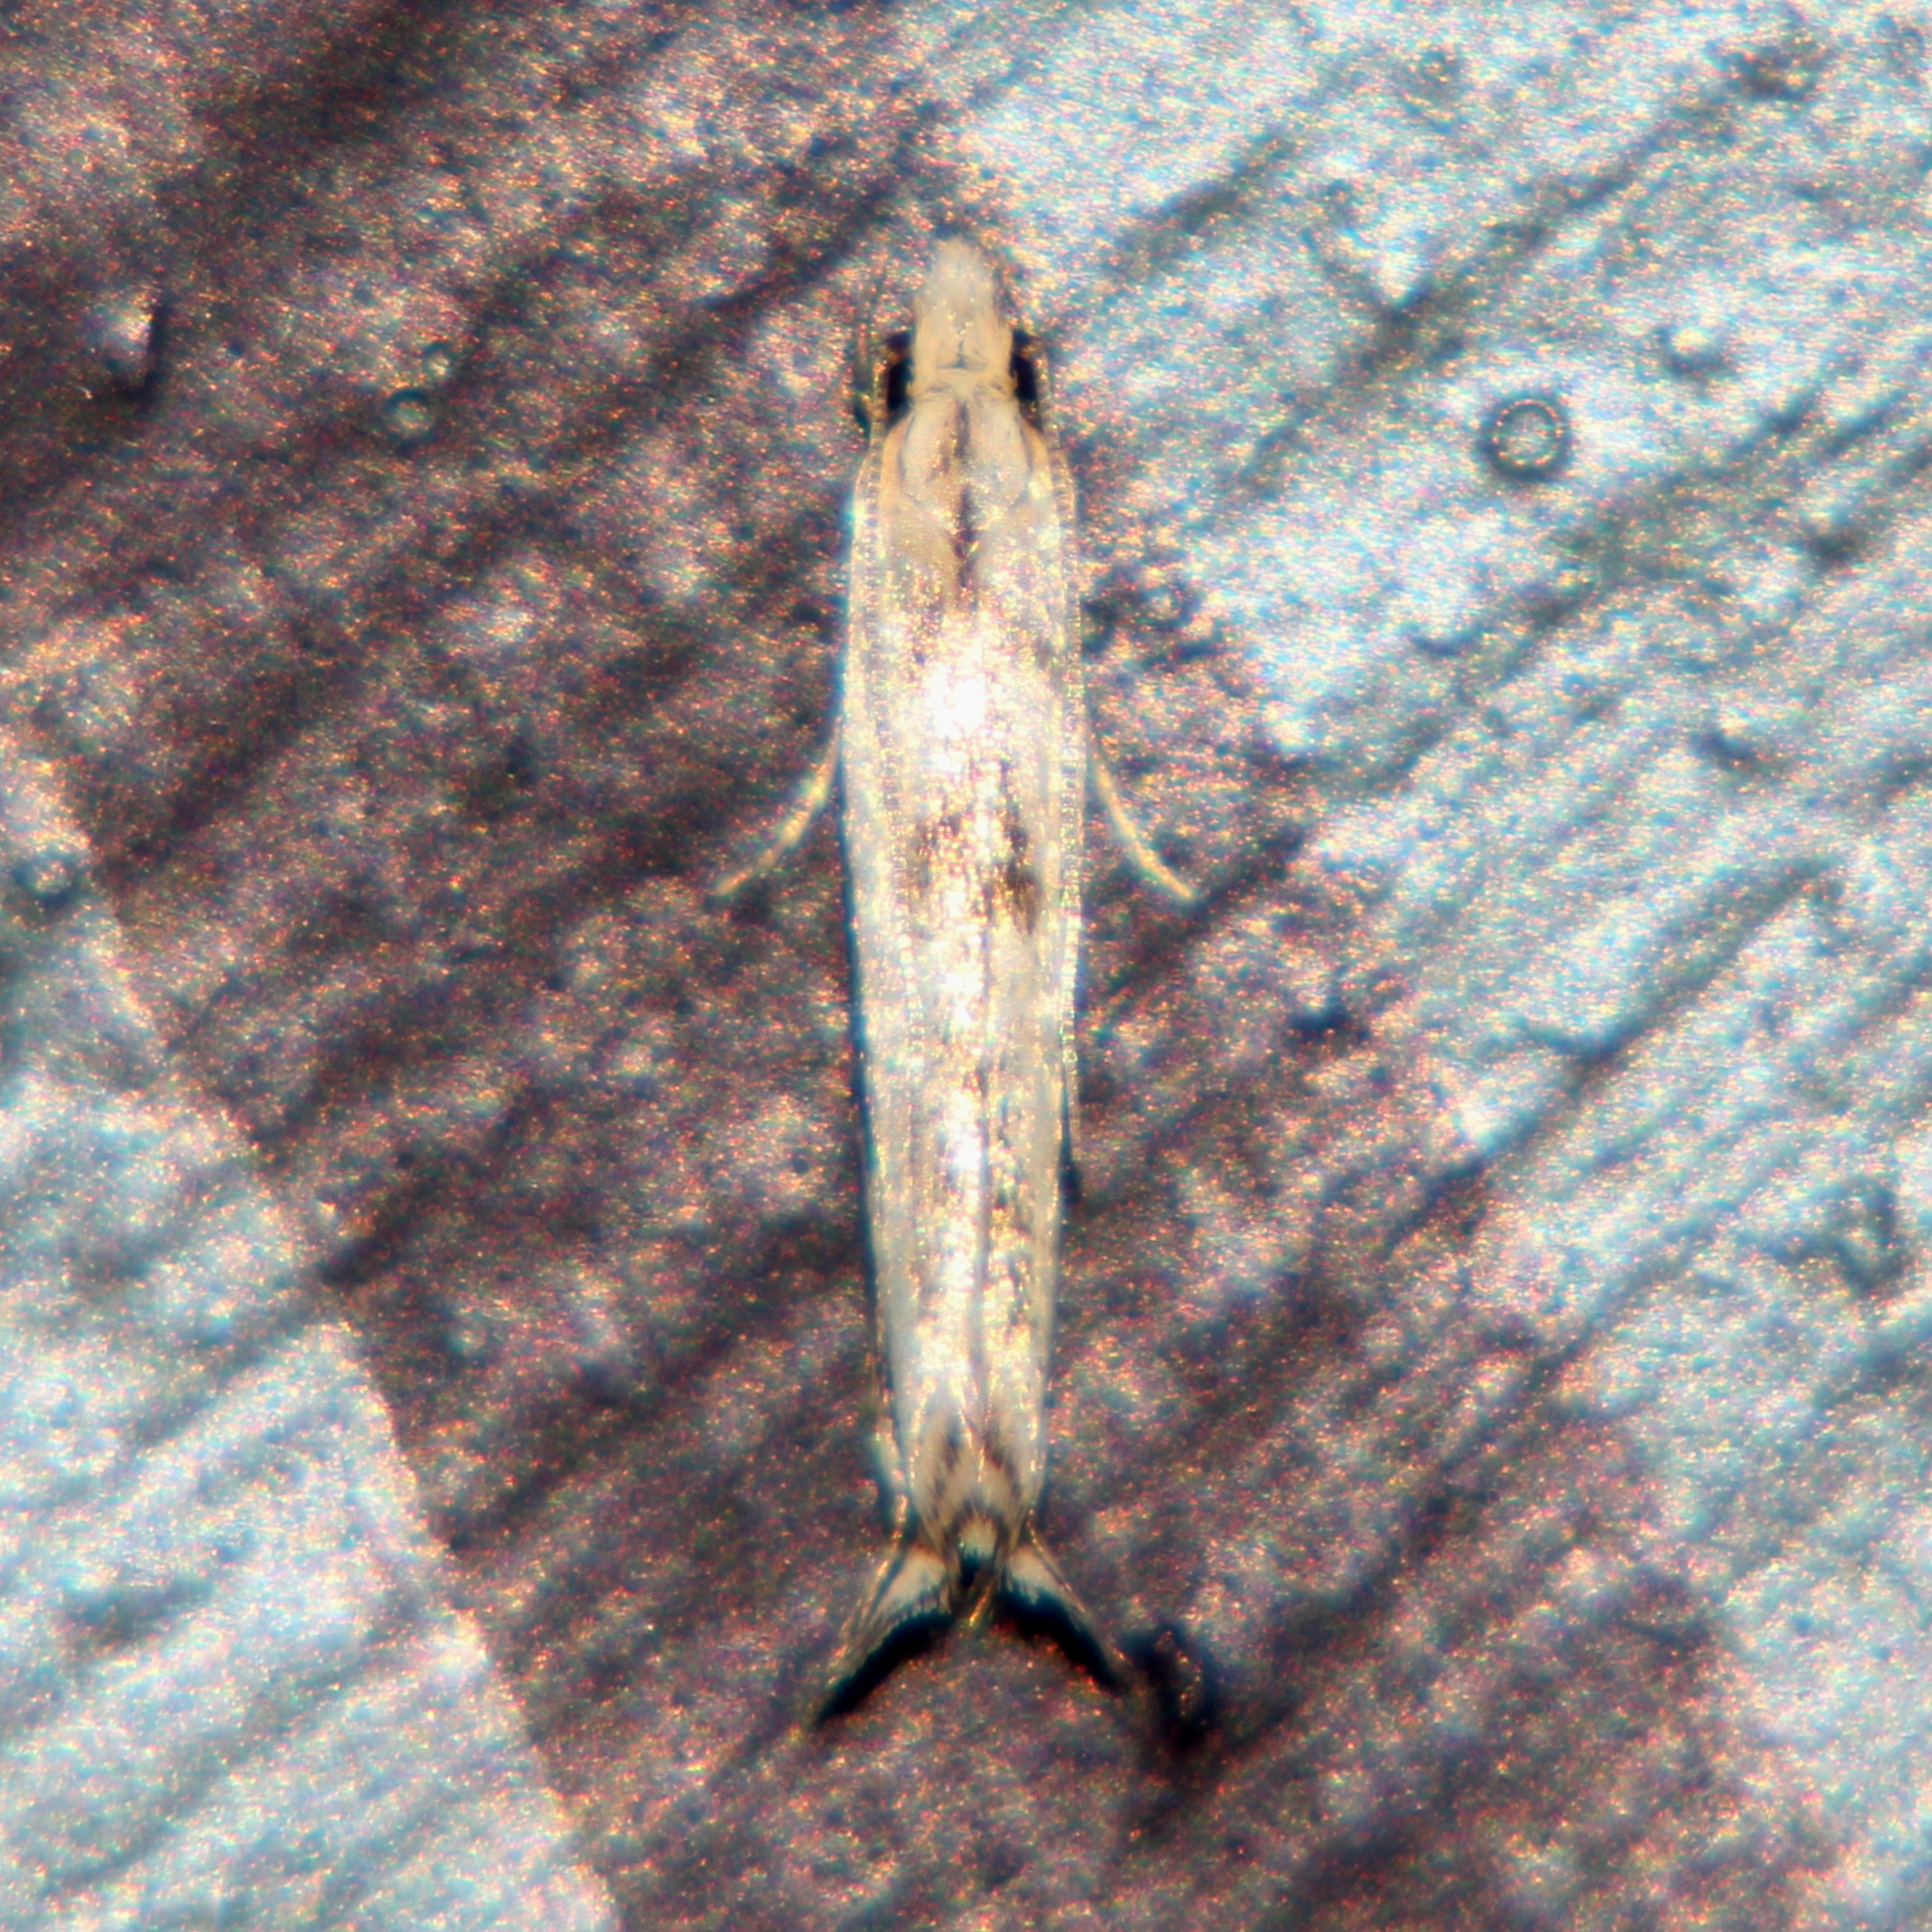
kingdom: Animalia
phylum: Arthropoda
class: Insecta
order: Lepidoptera
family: Tineidae
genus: Erechthias
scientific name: Erechthias terminella
